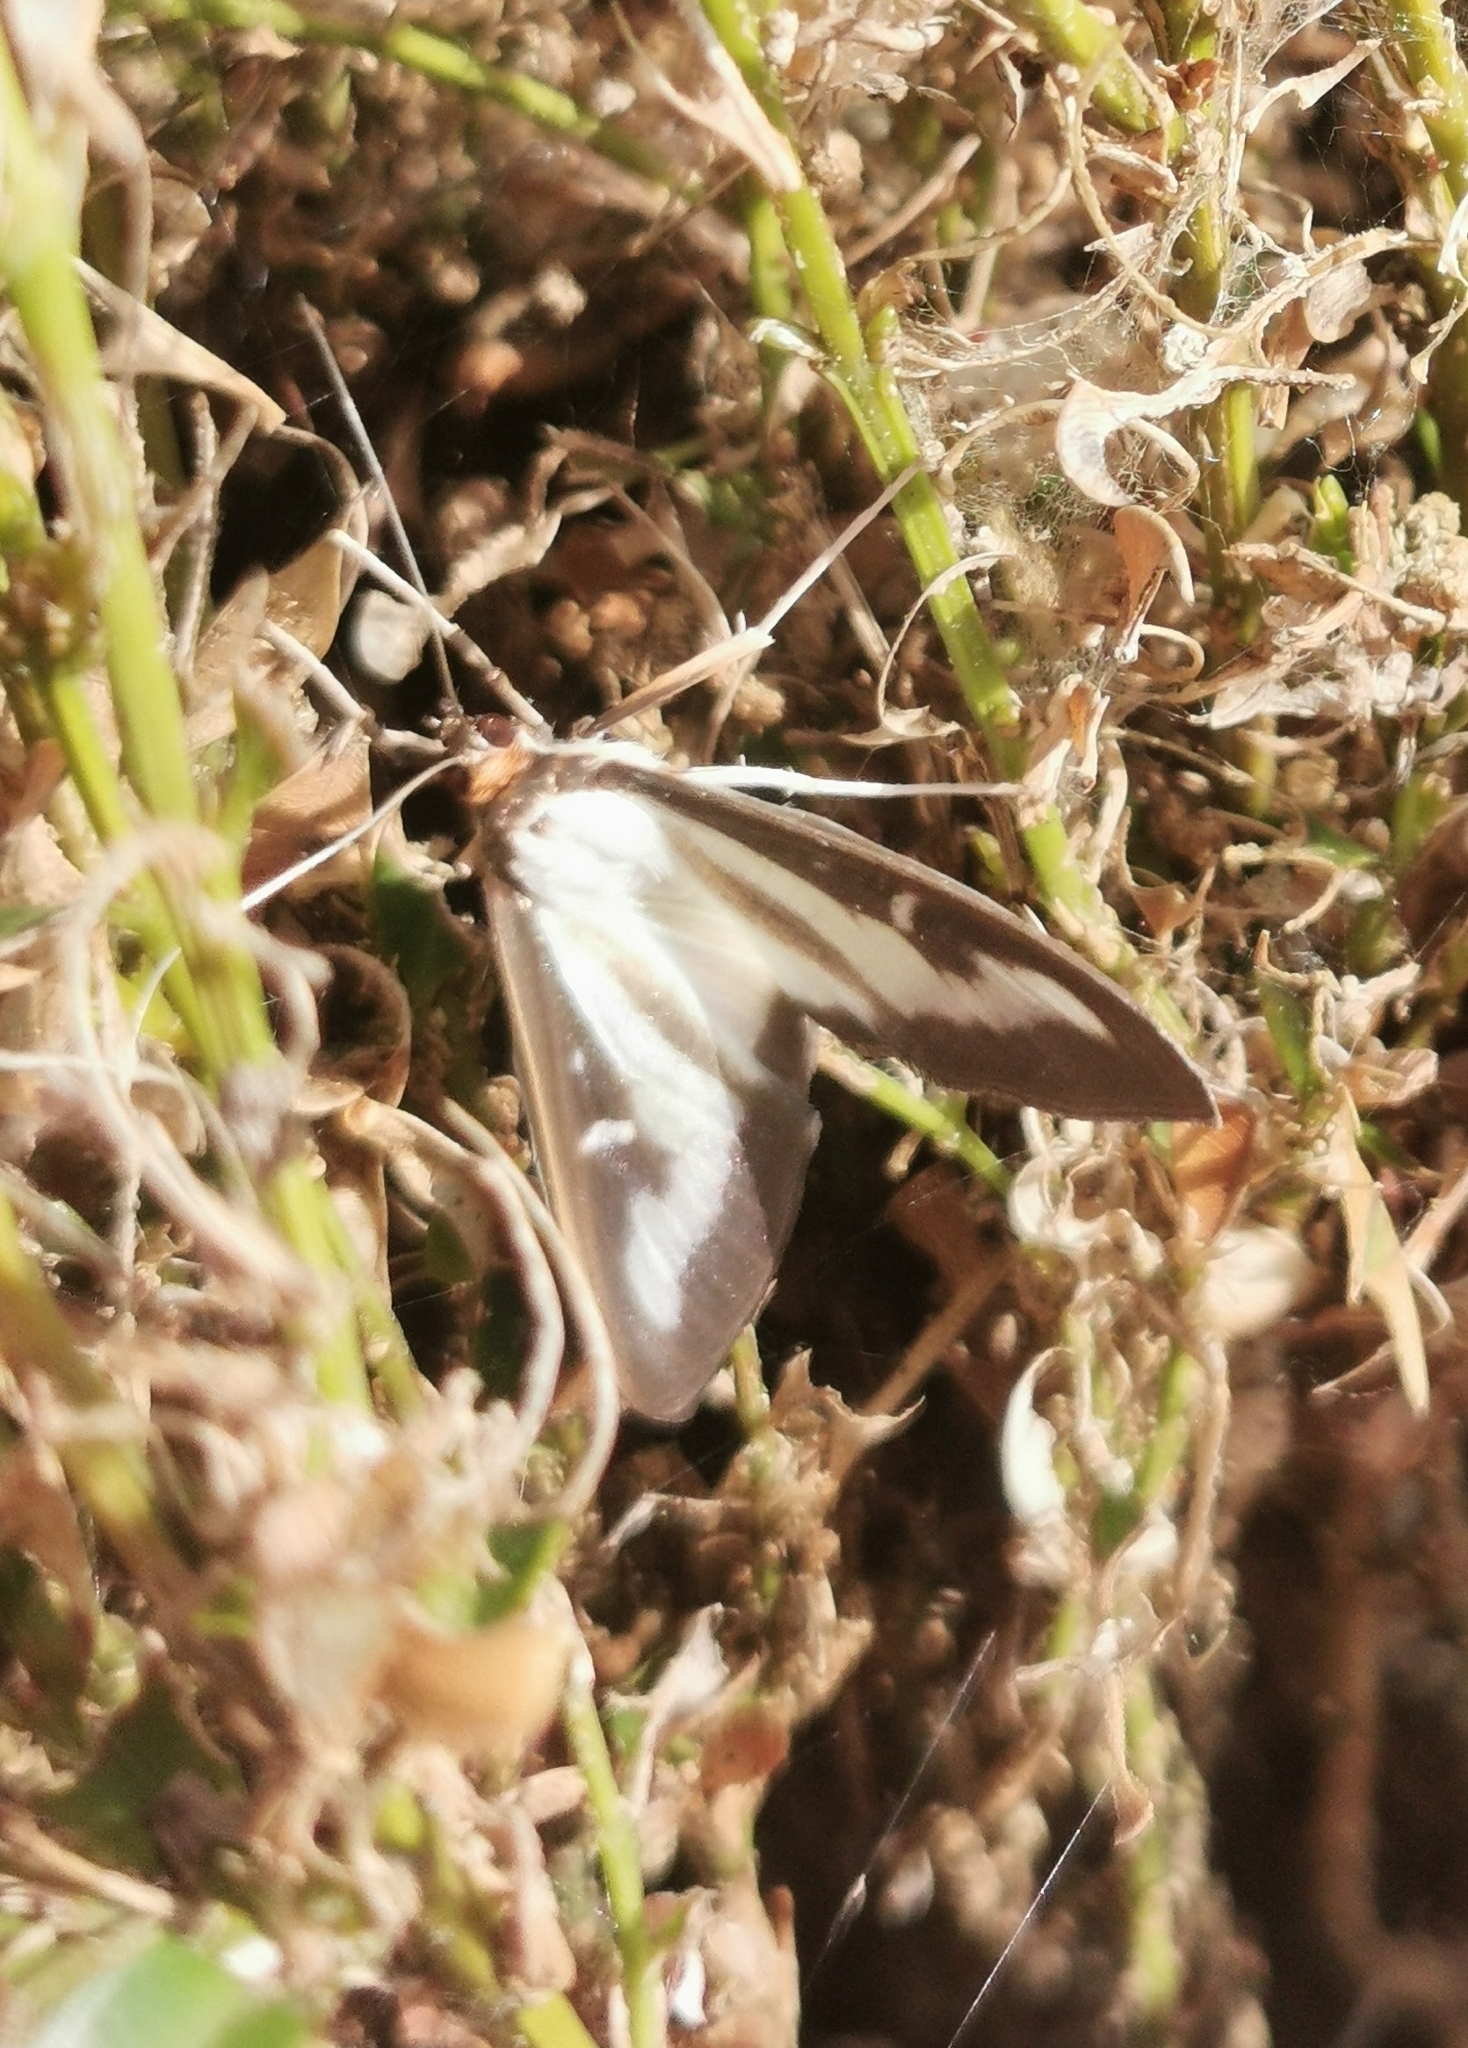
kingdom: Animalia
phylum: Arthropoda
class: Insecta
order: Lepidoptera
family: Crambidae
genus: Cydalima
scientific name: Cydalima perspectalis
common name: Box tree moth
